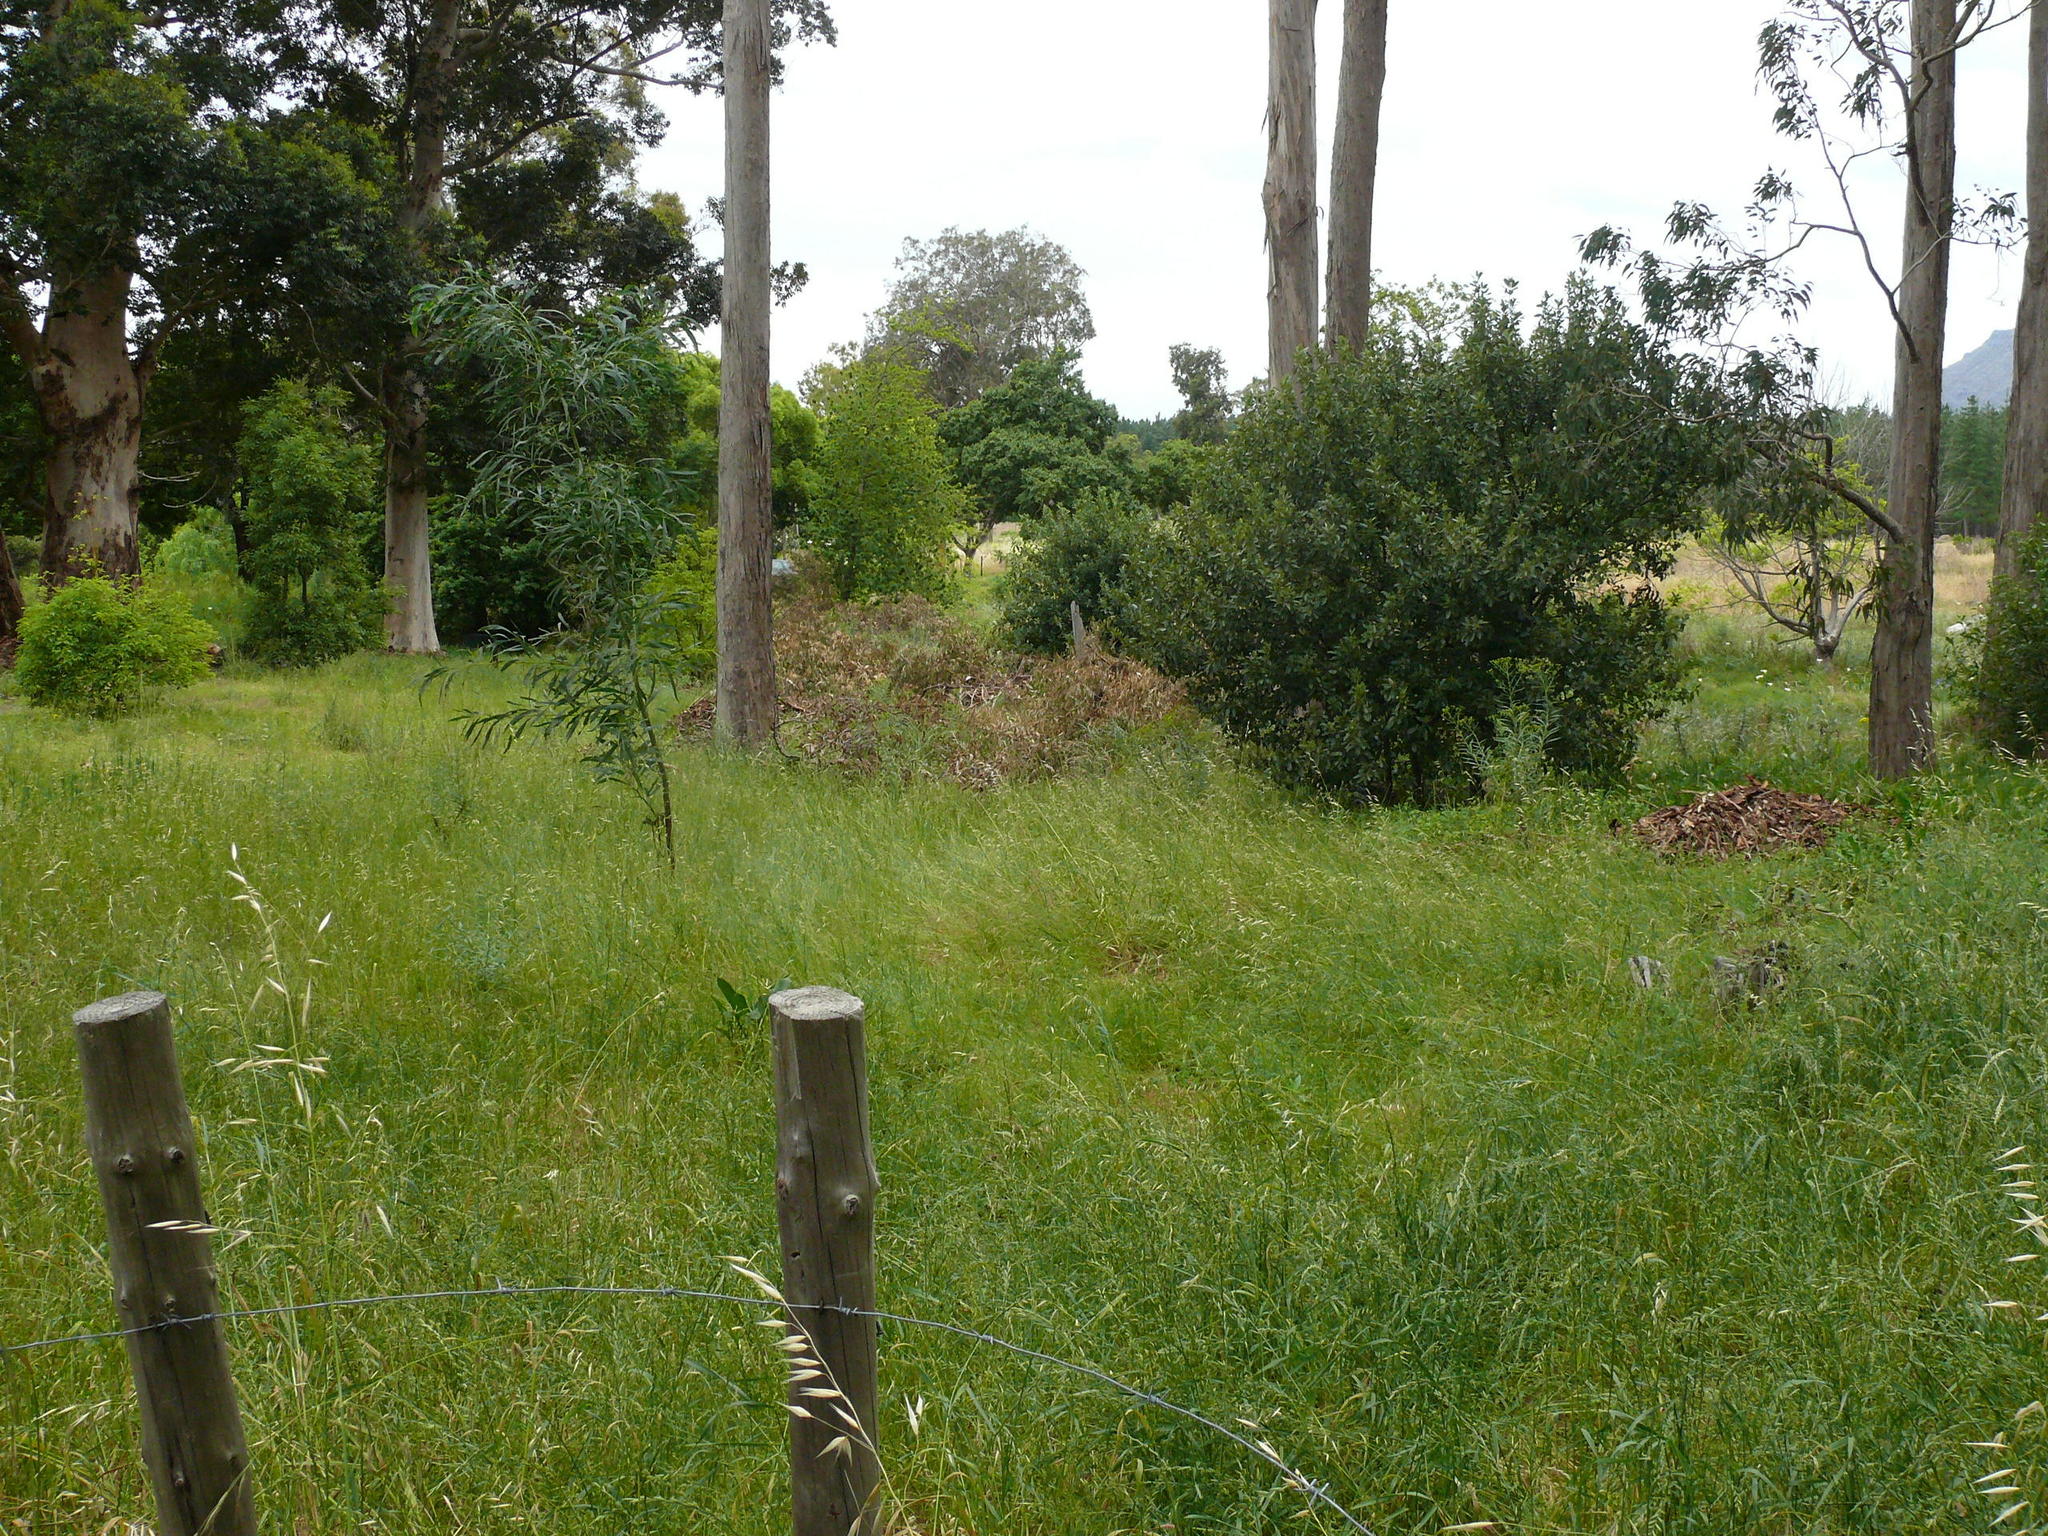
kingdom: Plantae
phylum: Tracheophyta
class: Liliopsida
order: Poales
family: Poaceae
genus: Avena
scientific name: Avena fatua
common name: Wild oat
